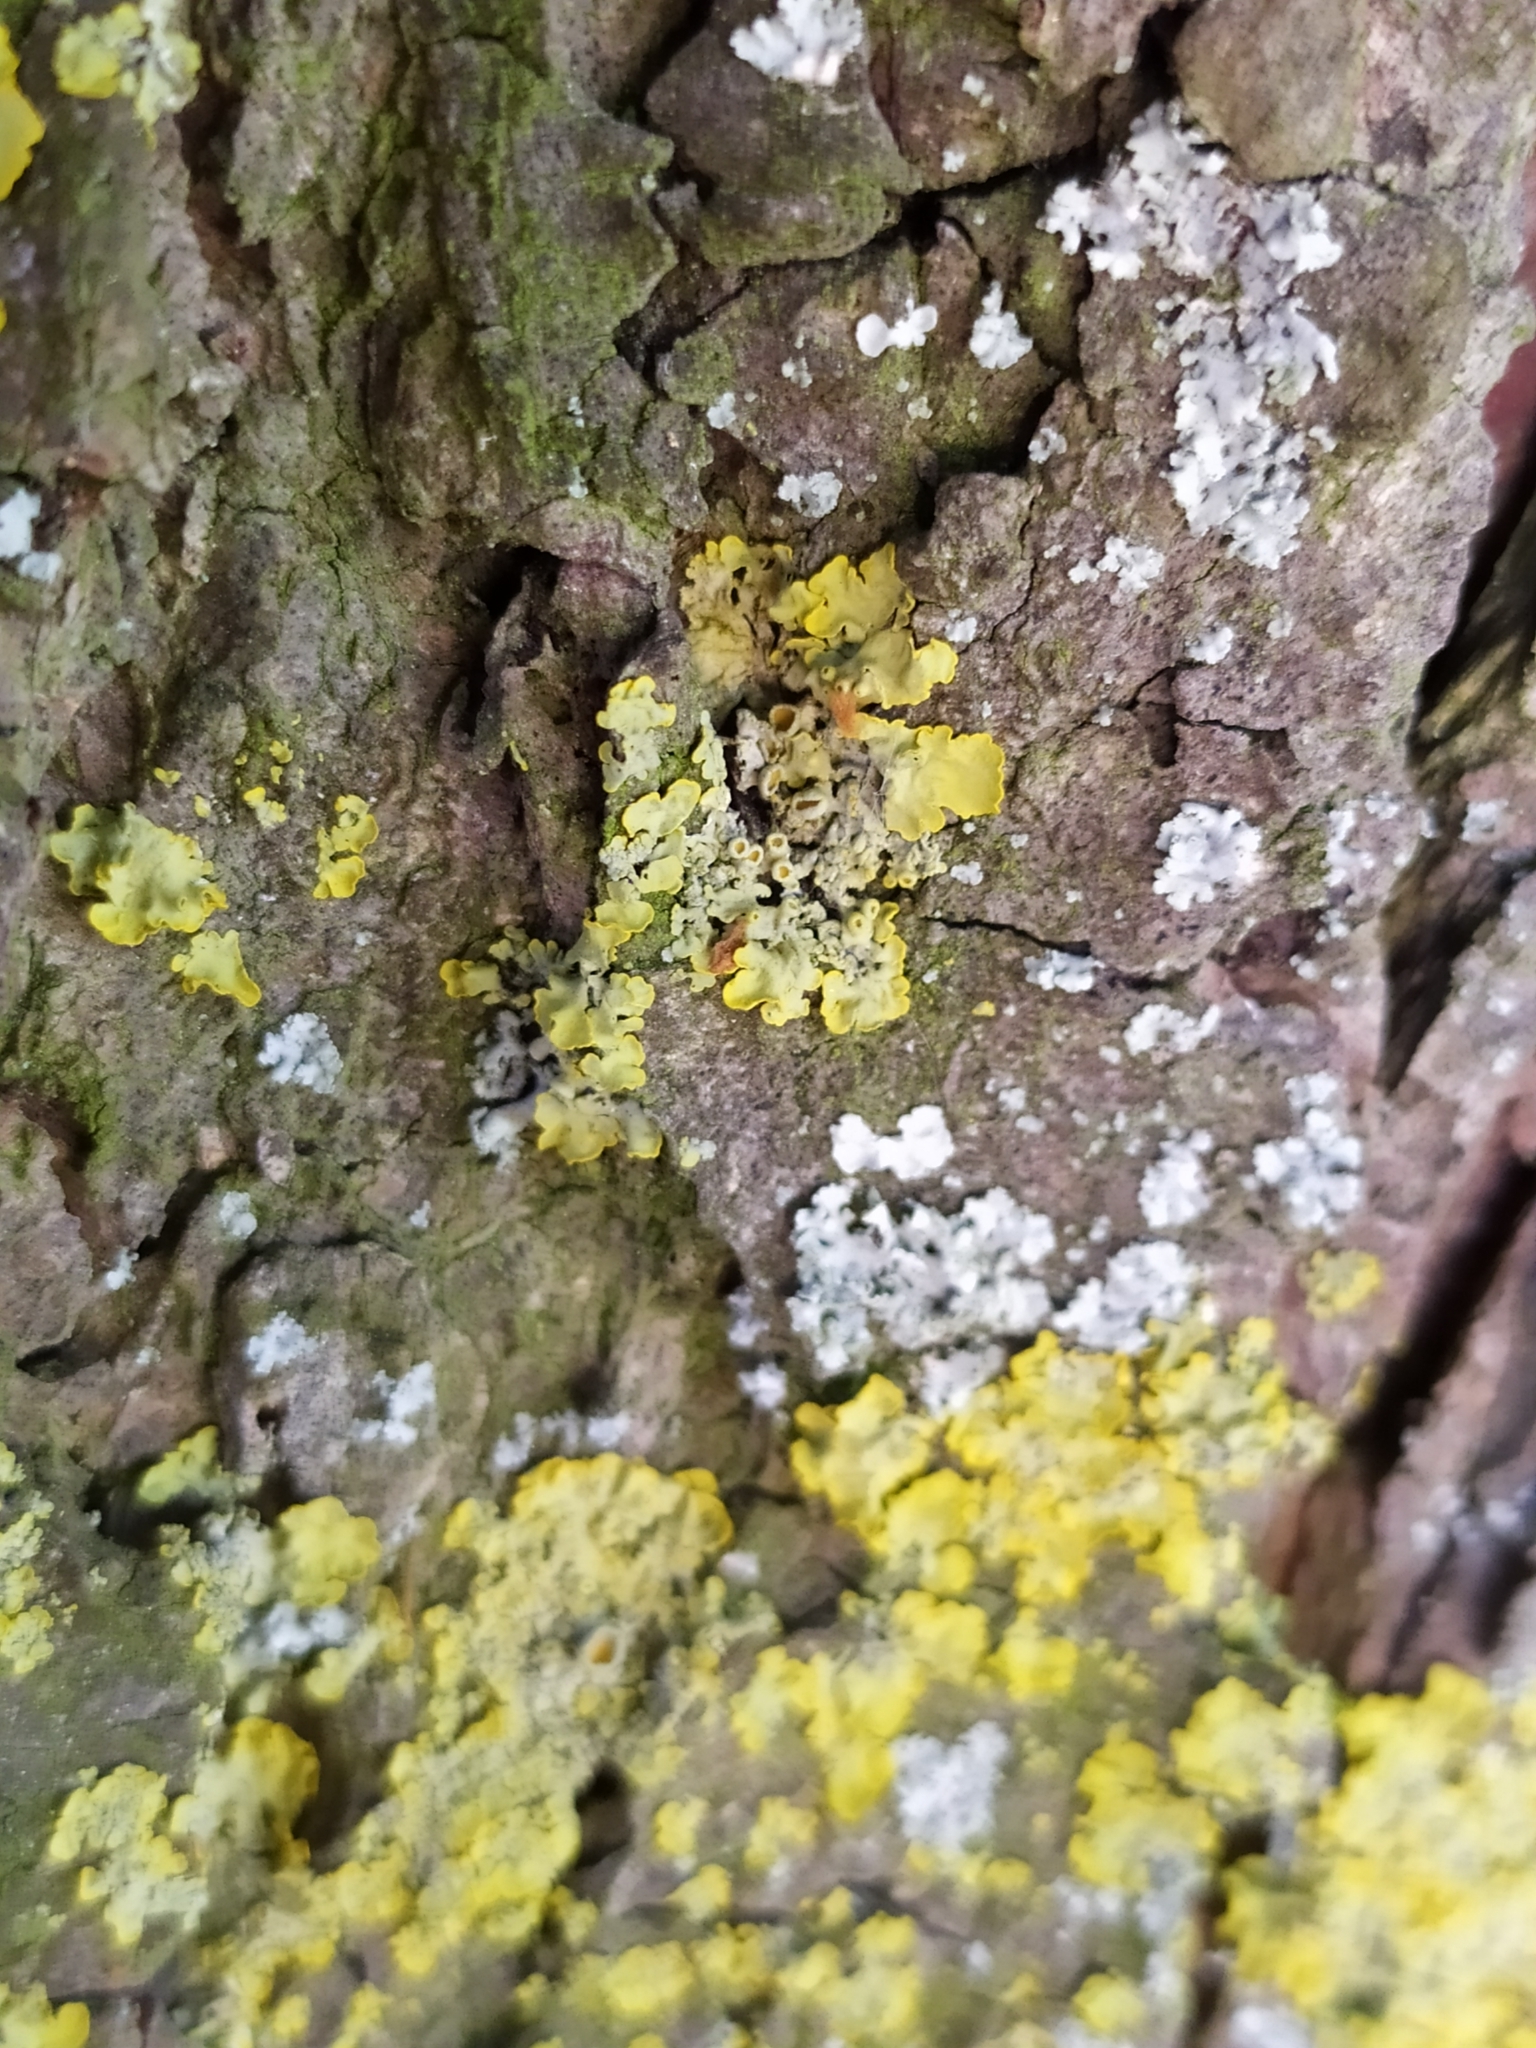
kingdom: Fungi
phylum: Ascomycota
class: Lecanoromycetes
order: Teloschistales
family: Teloschistaceae
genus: Xanthoria
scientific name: Xanthoria parietina
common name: Common orange lichen
